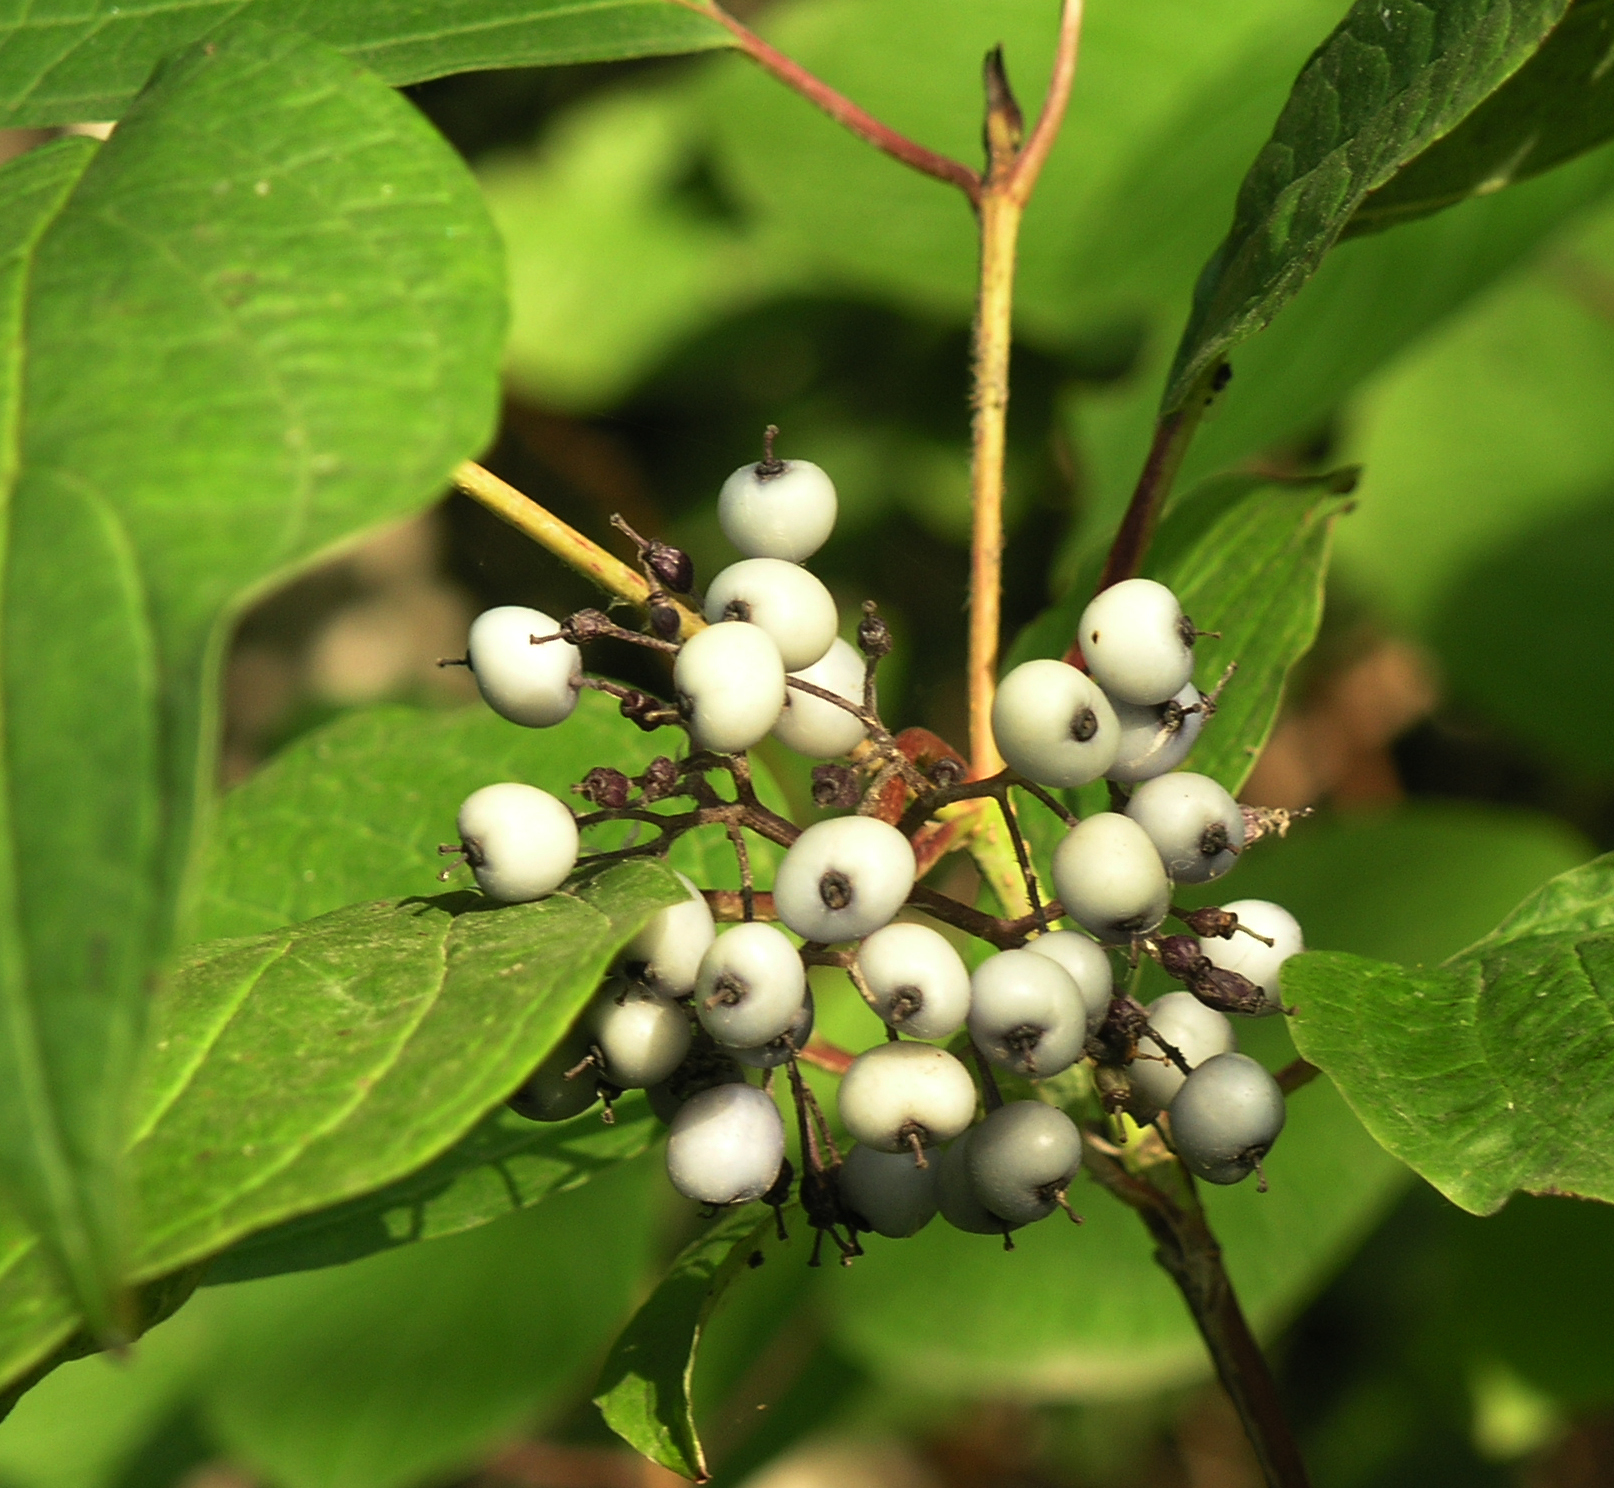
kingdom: Plantae
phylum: Tracheophyta
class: Magnoliopsida
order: Cornales
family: Cornaceae
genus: Cornus
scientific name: Cornus alba
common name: White dogwood
